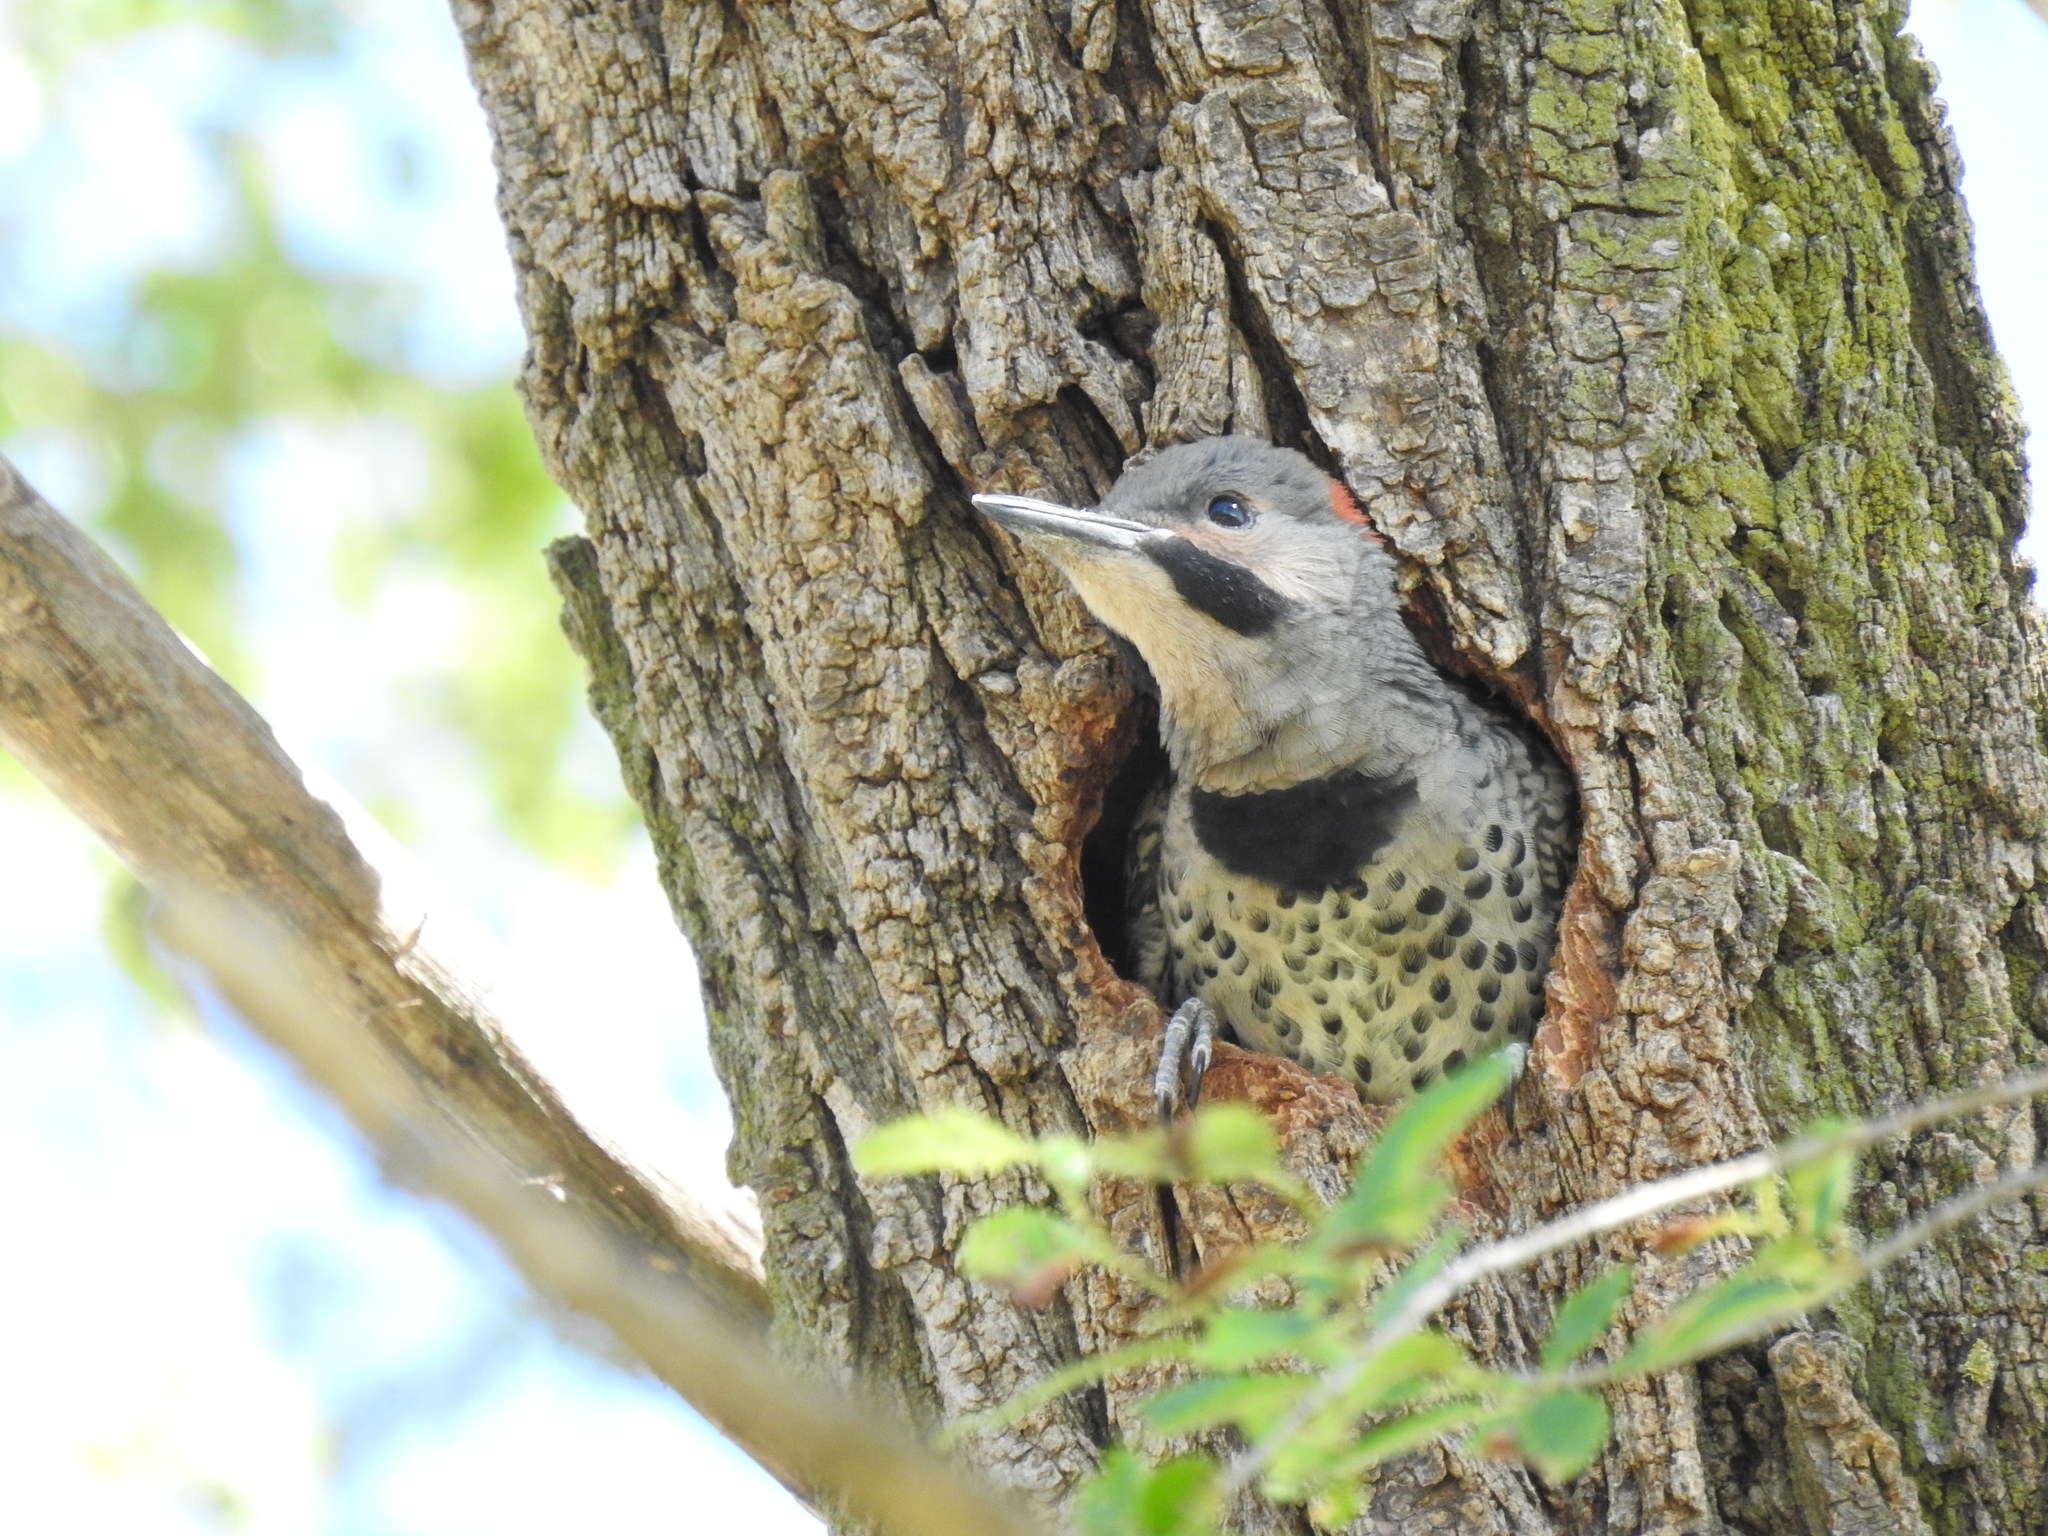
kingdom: Animalia
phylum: Chordata
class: Aves
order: Piciformes
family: Picidae
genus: Colaptes
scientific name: Colaptes auratus
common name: Northern flicker
